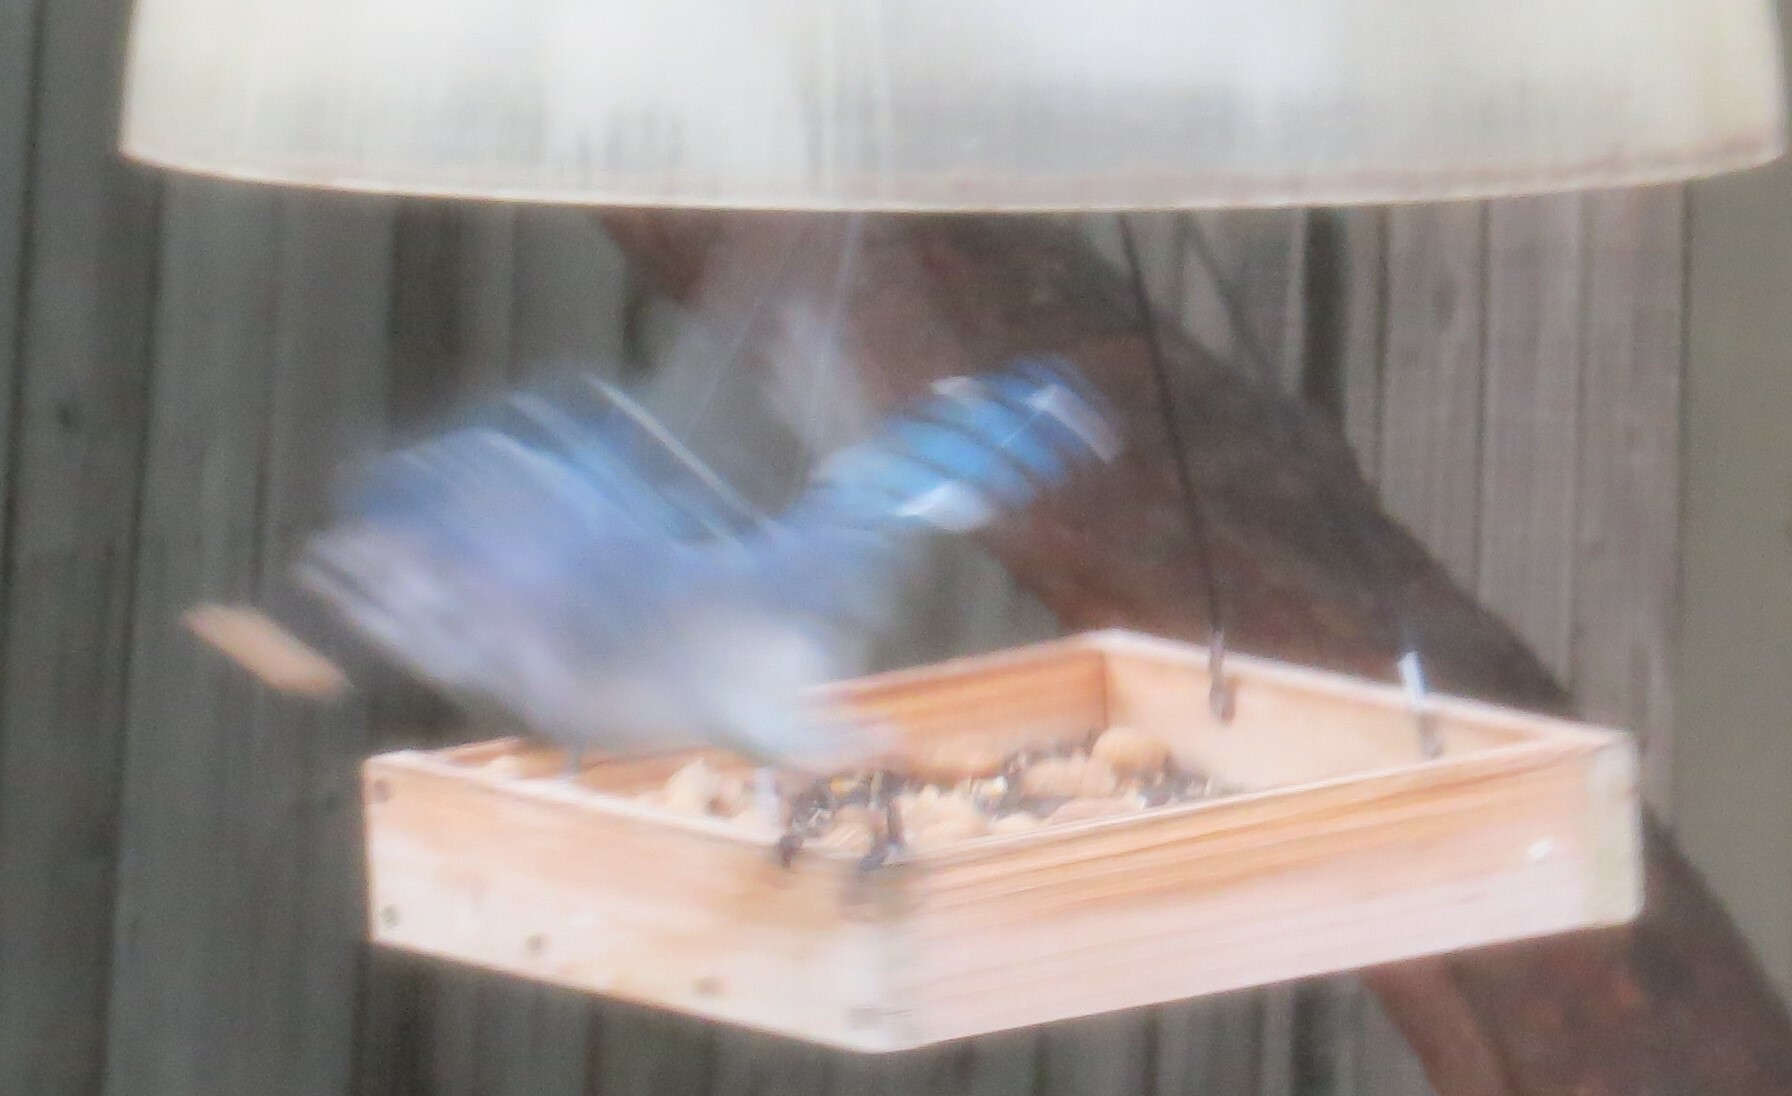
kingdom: Animalia
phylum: Chordata
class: Aves
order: Passeriformes
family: Corvidae
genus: Cyanocitta
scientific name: Cyanocitta cristata
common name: Blue jay
